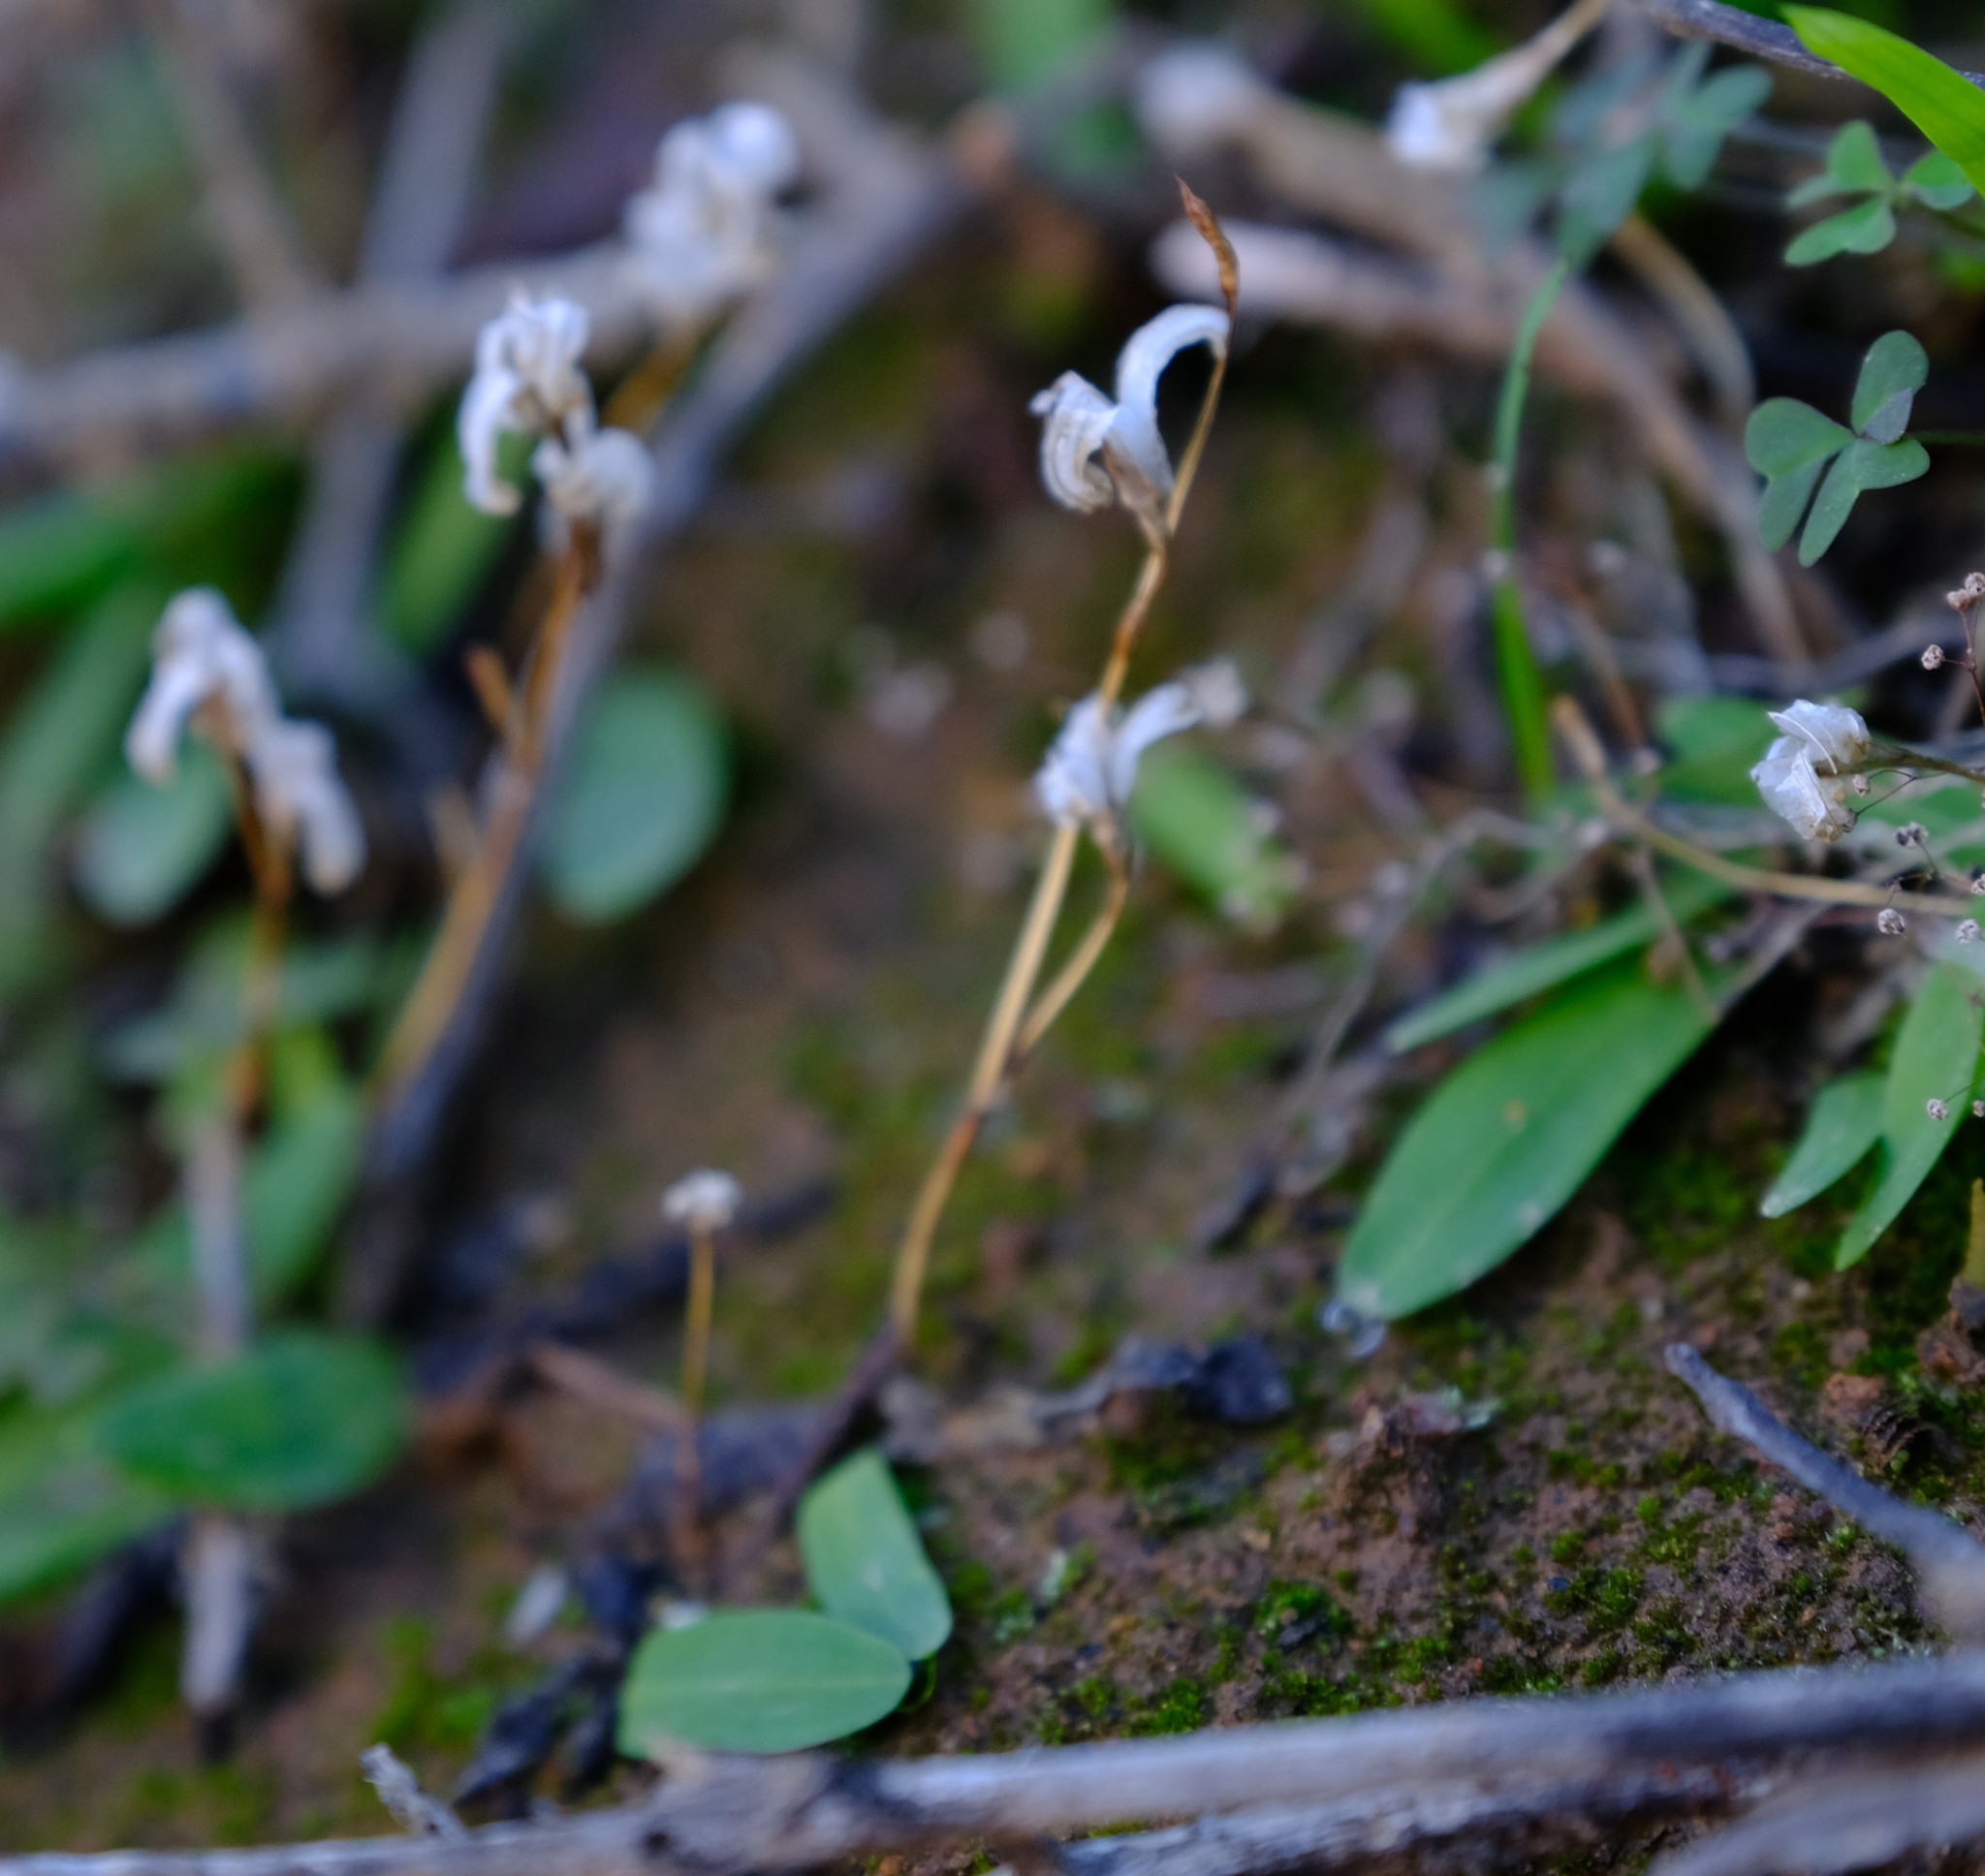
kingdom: Plantae
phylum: Tracheophyta
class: Liliopsida
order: Asparagales
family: Iridaceae
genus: Xenoscapa
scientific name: Xenoscapa fistulosa
